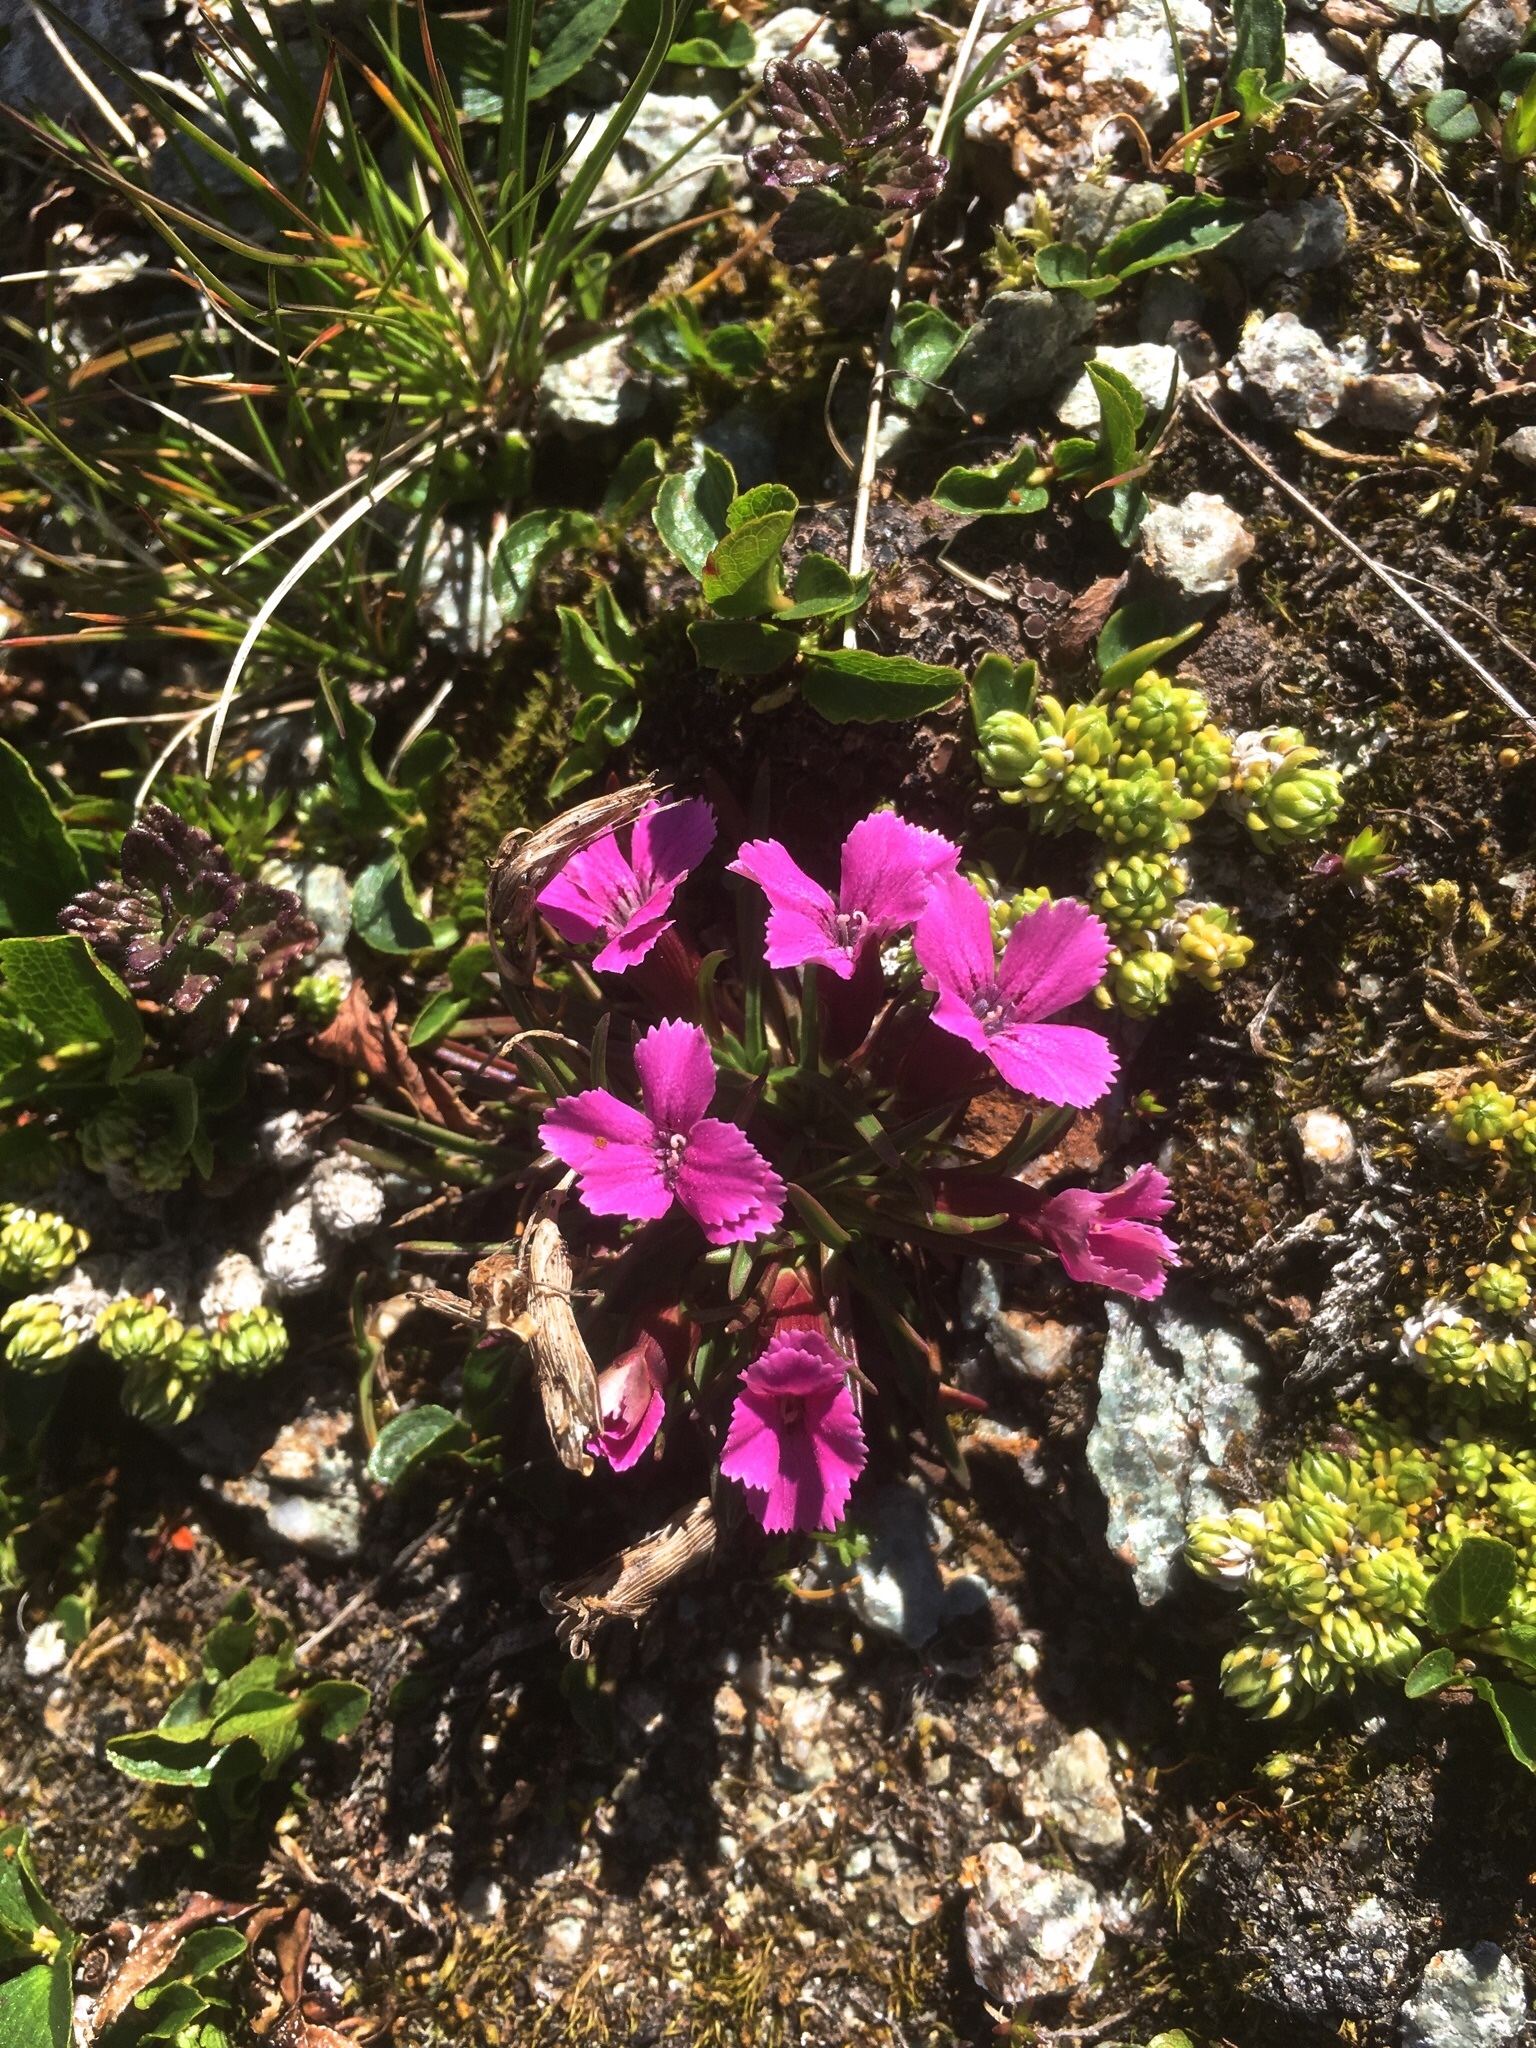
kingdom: Plantae
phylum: Tracheophyta
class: Magnoliopsida
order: Caryophyllales
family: Caryophyllaceae
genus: Dianthus
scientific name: Dianthus glacialis
